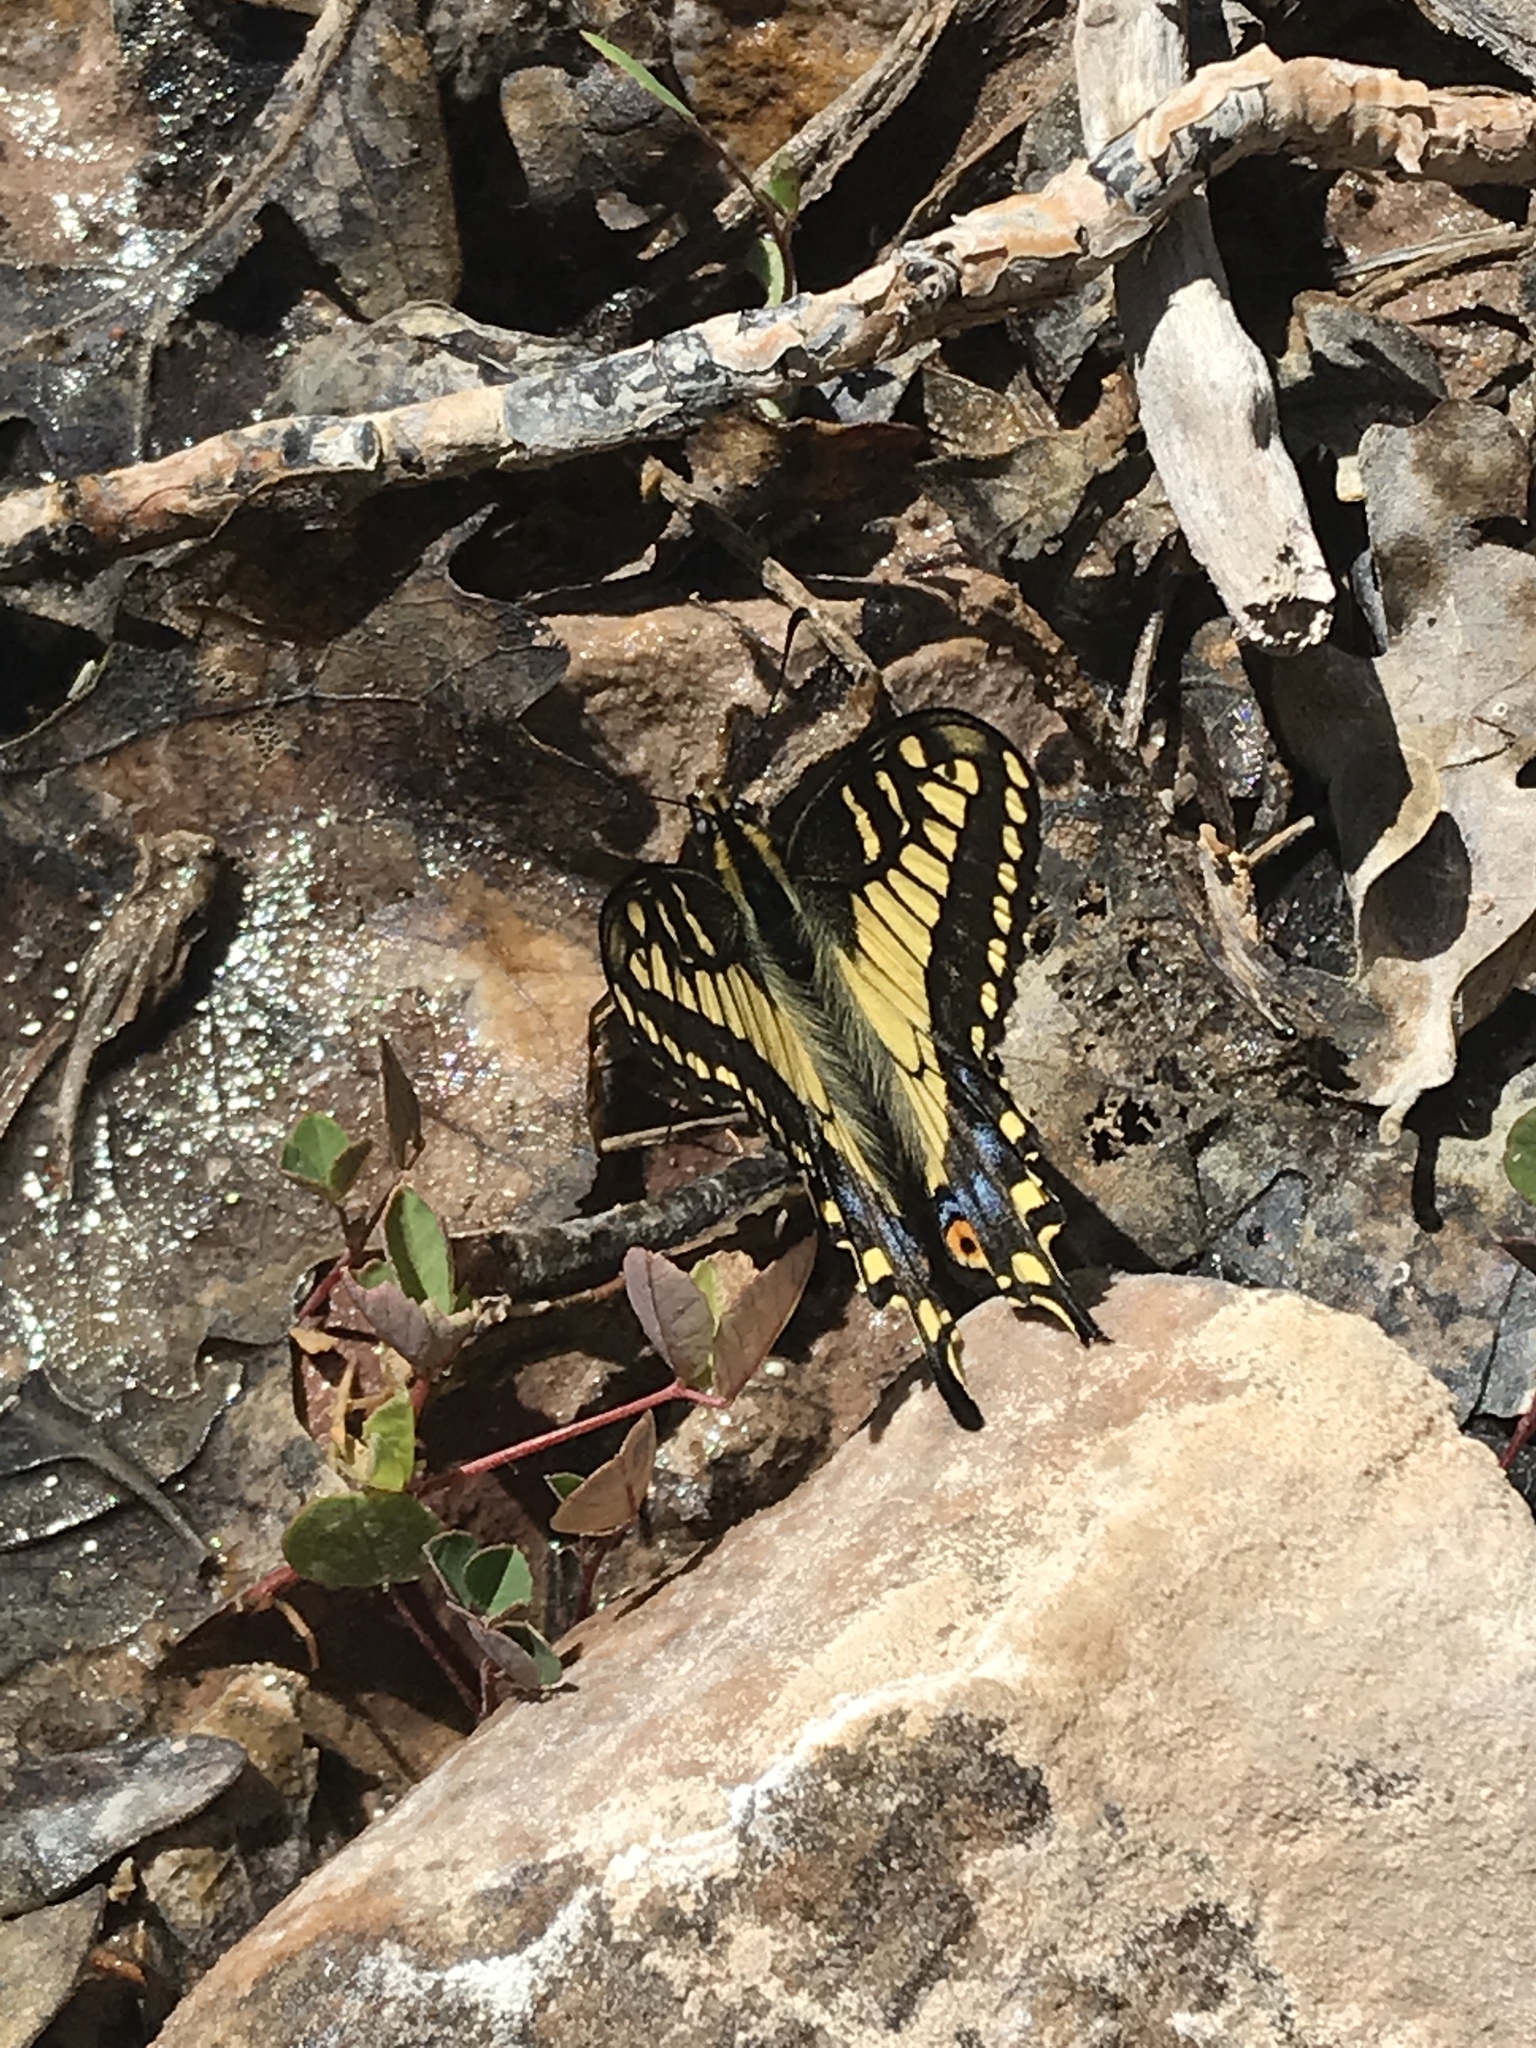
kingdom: Animalia
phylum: Arthropoda
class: Insecta
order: Lepidoptera
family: Papilionidae
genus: Papilio
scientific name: Papilio zelicaon
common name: Anise swallowtail
